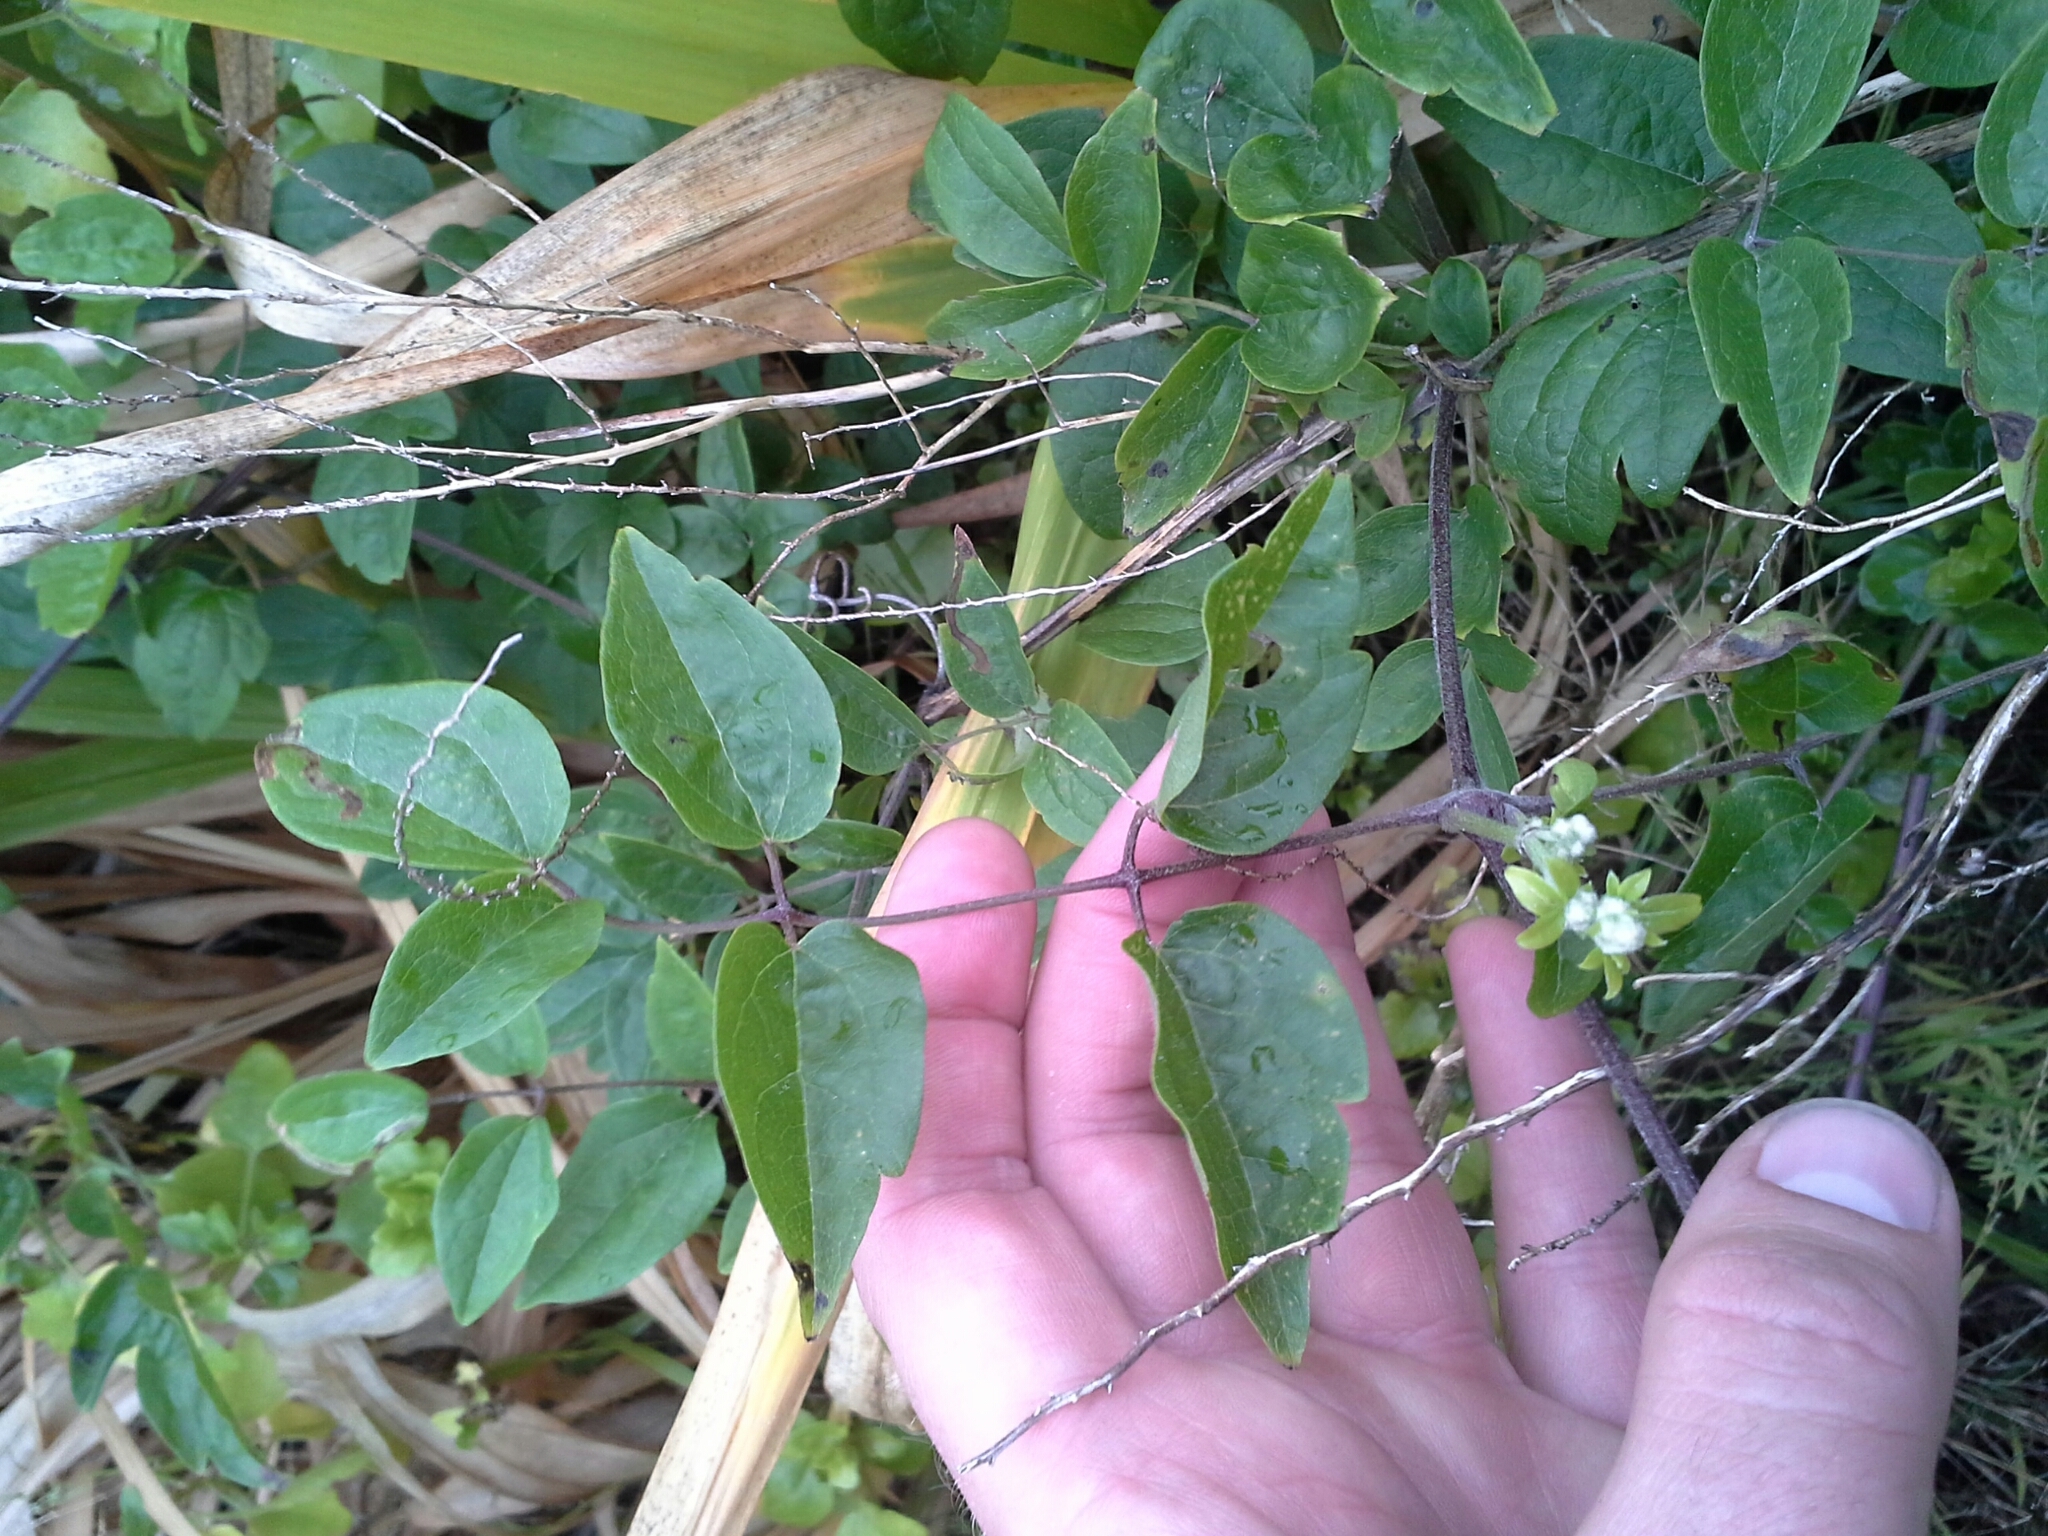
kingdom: Plantae
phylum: Tracheophyta
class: Magnoliopsida
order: Ranunculales
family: Ranunculaceae
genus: Clematis
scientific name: Clematis vitalba
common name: Evergreen clematis
